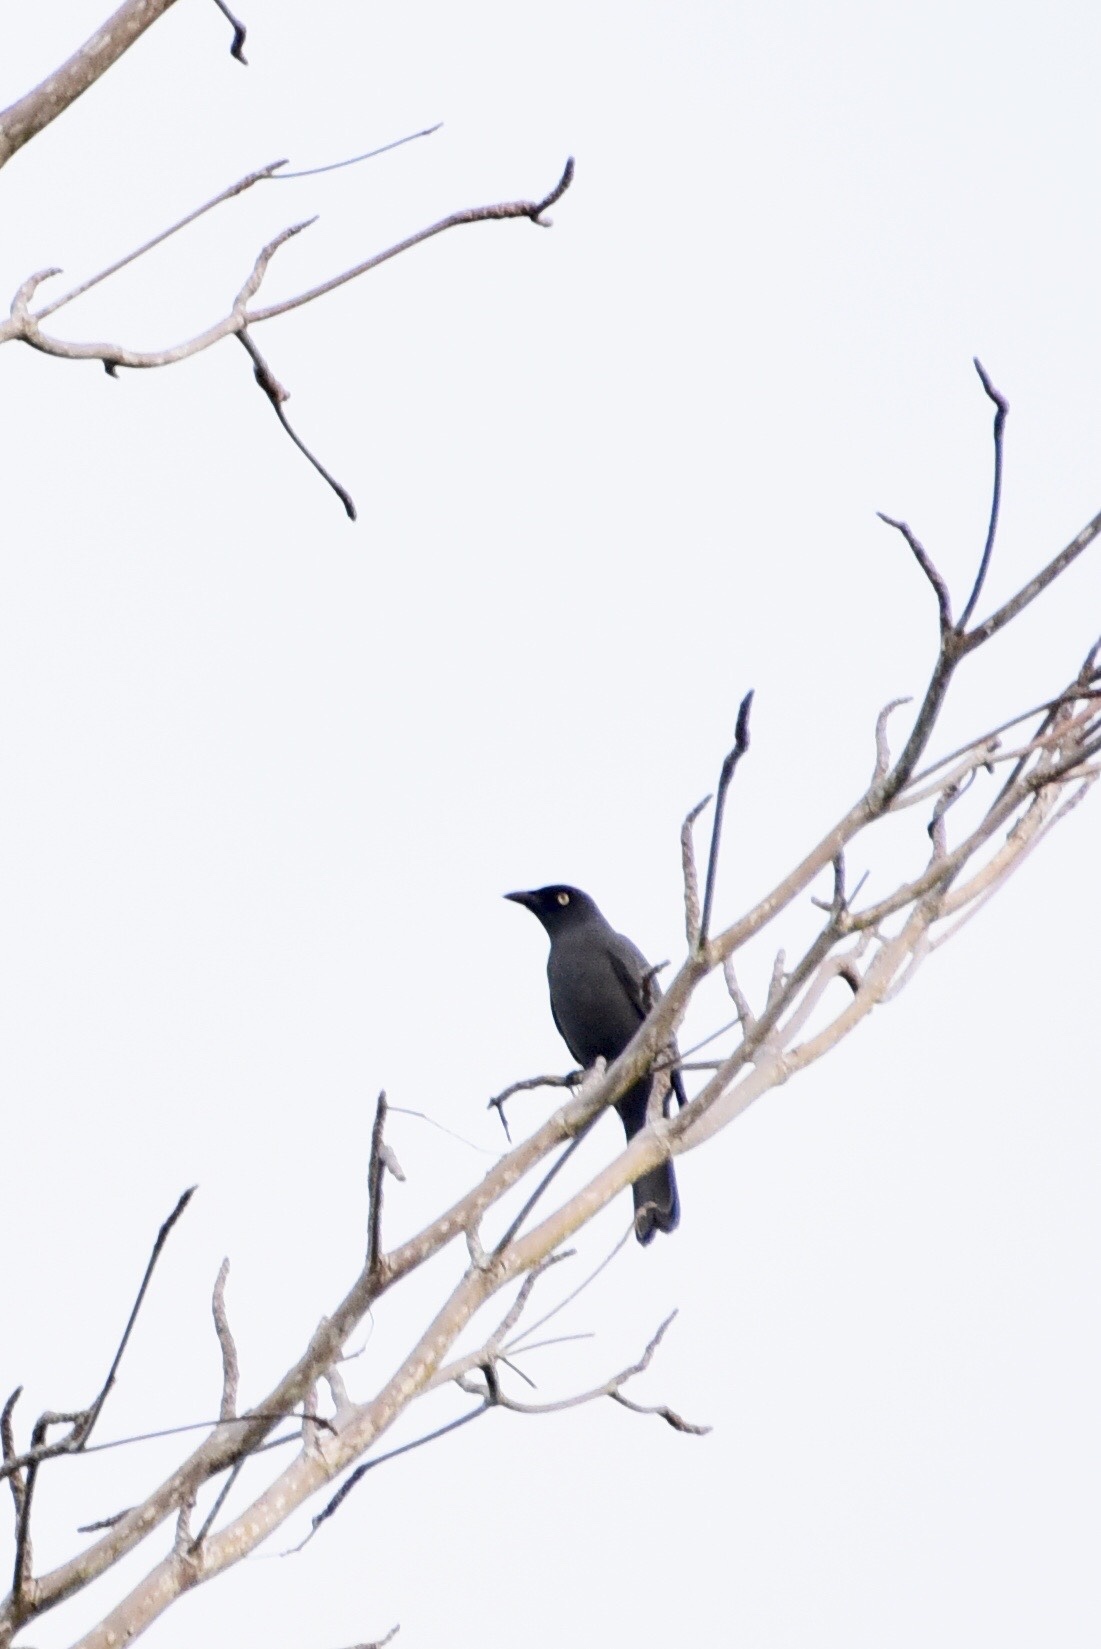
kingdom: Animalia
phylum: Chordata
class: Aves
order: Passeriformes
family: Campephagidae
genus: Coracina
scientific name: Coracina caledonica
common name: South melanesian cuckooshrike
